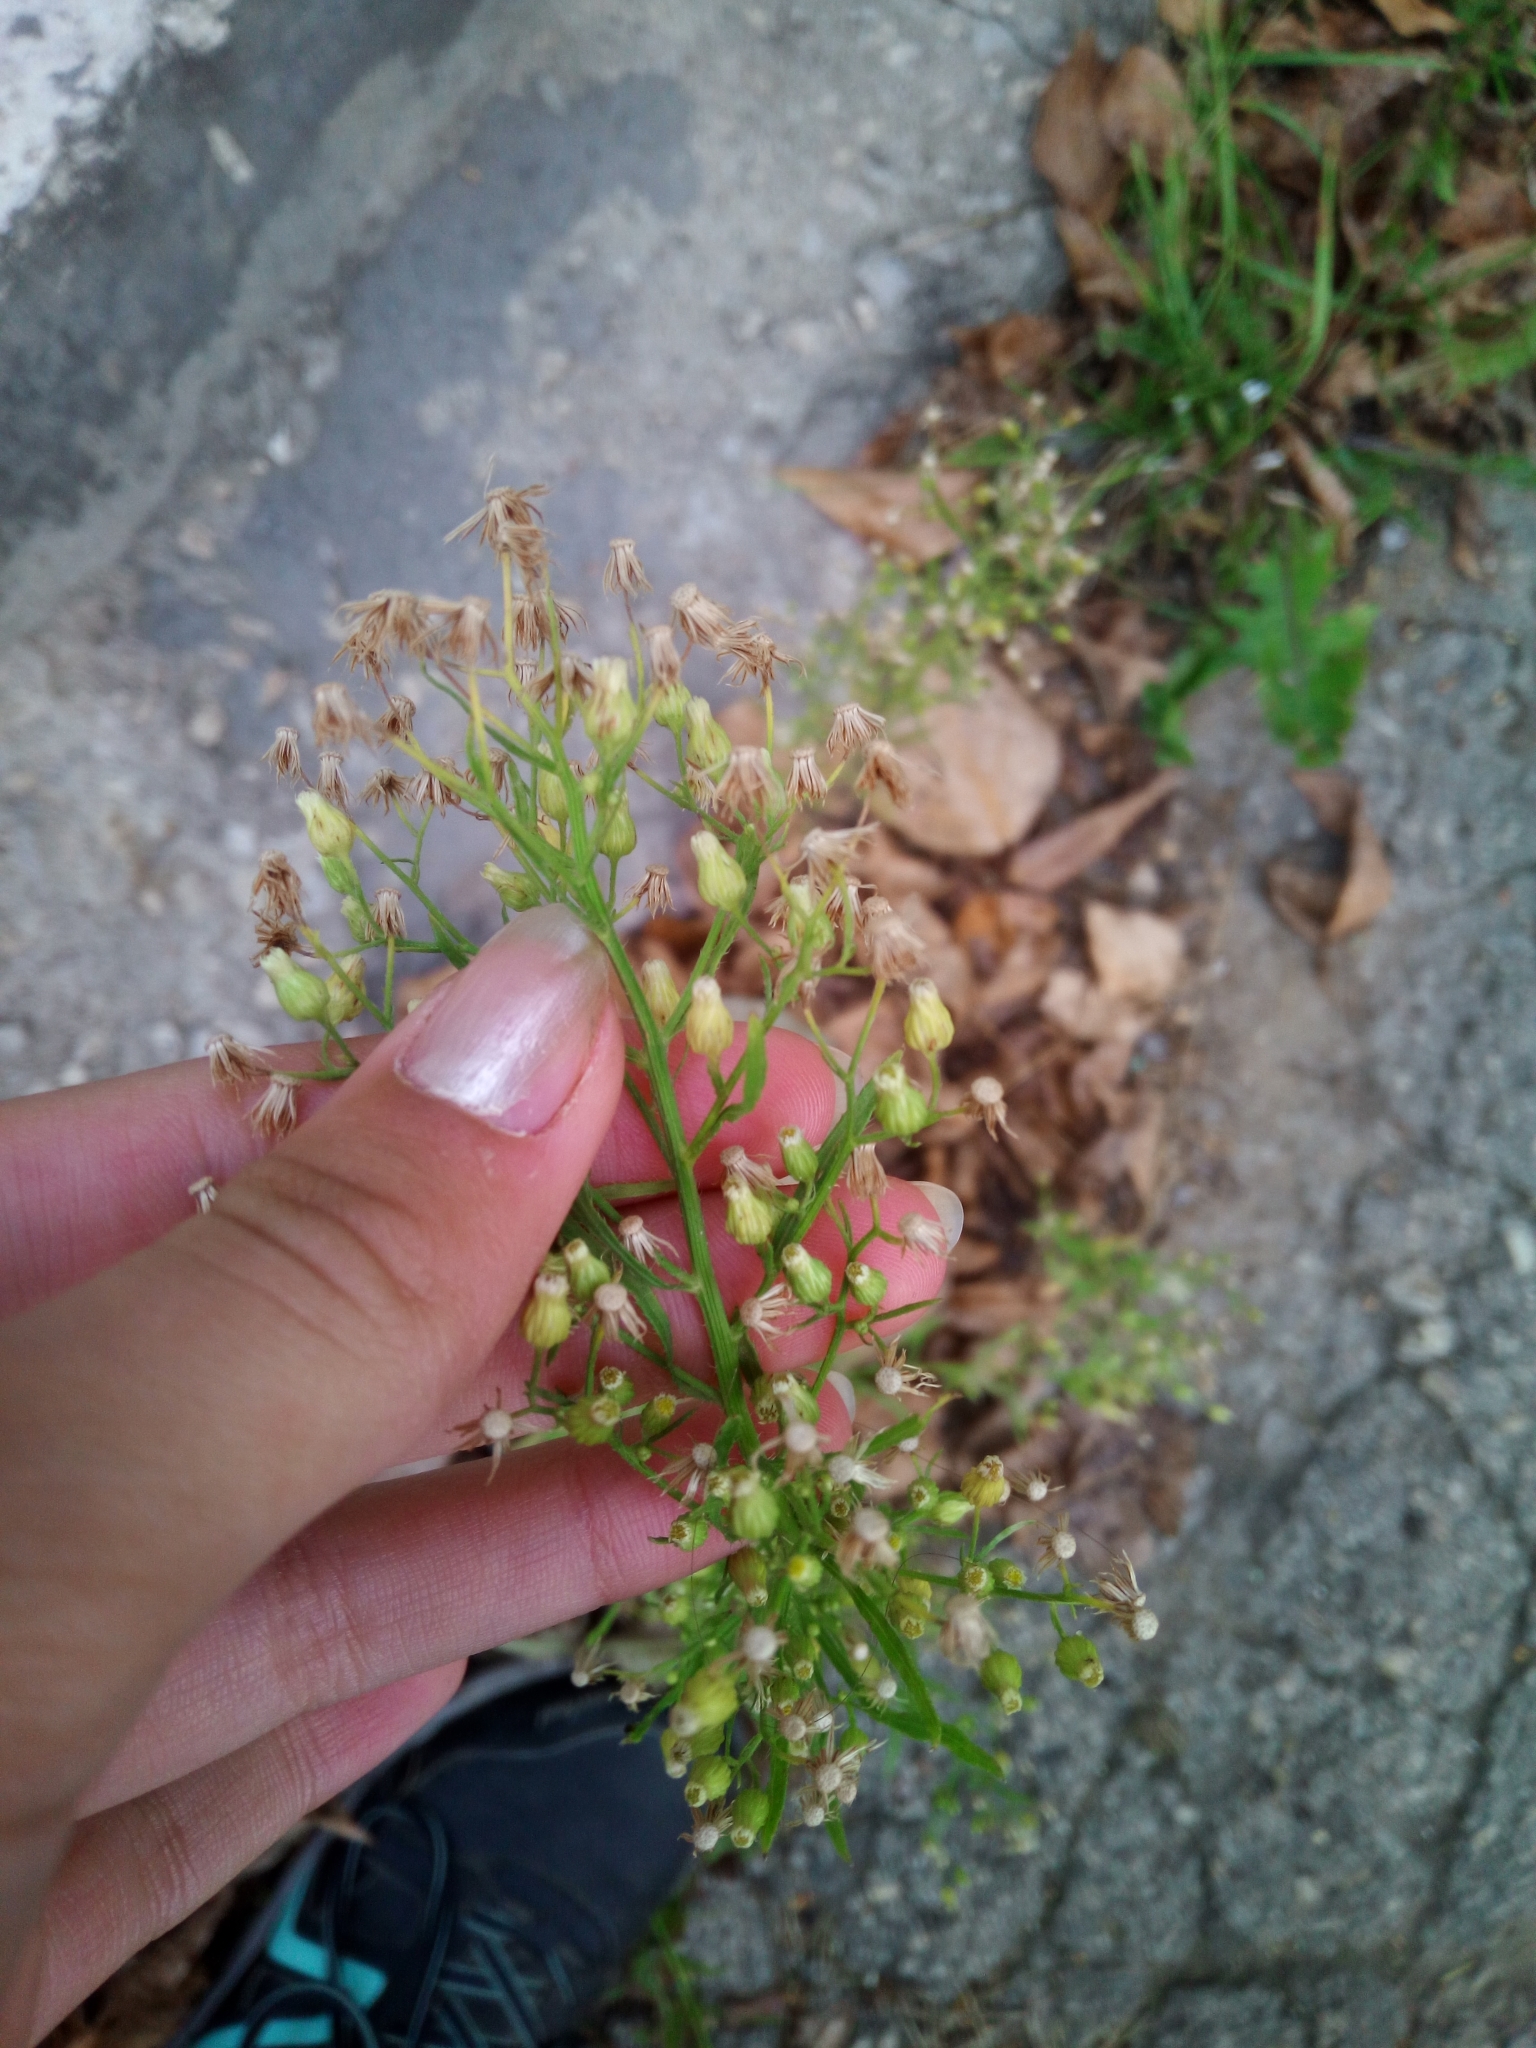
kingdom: Plantae
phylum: Tracheophyta
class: Magnoliopsida
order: Asterales
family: Asteraceae
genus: Erigeron
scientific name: Erigeron canadensis
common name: Canadian fleabane
